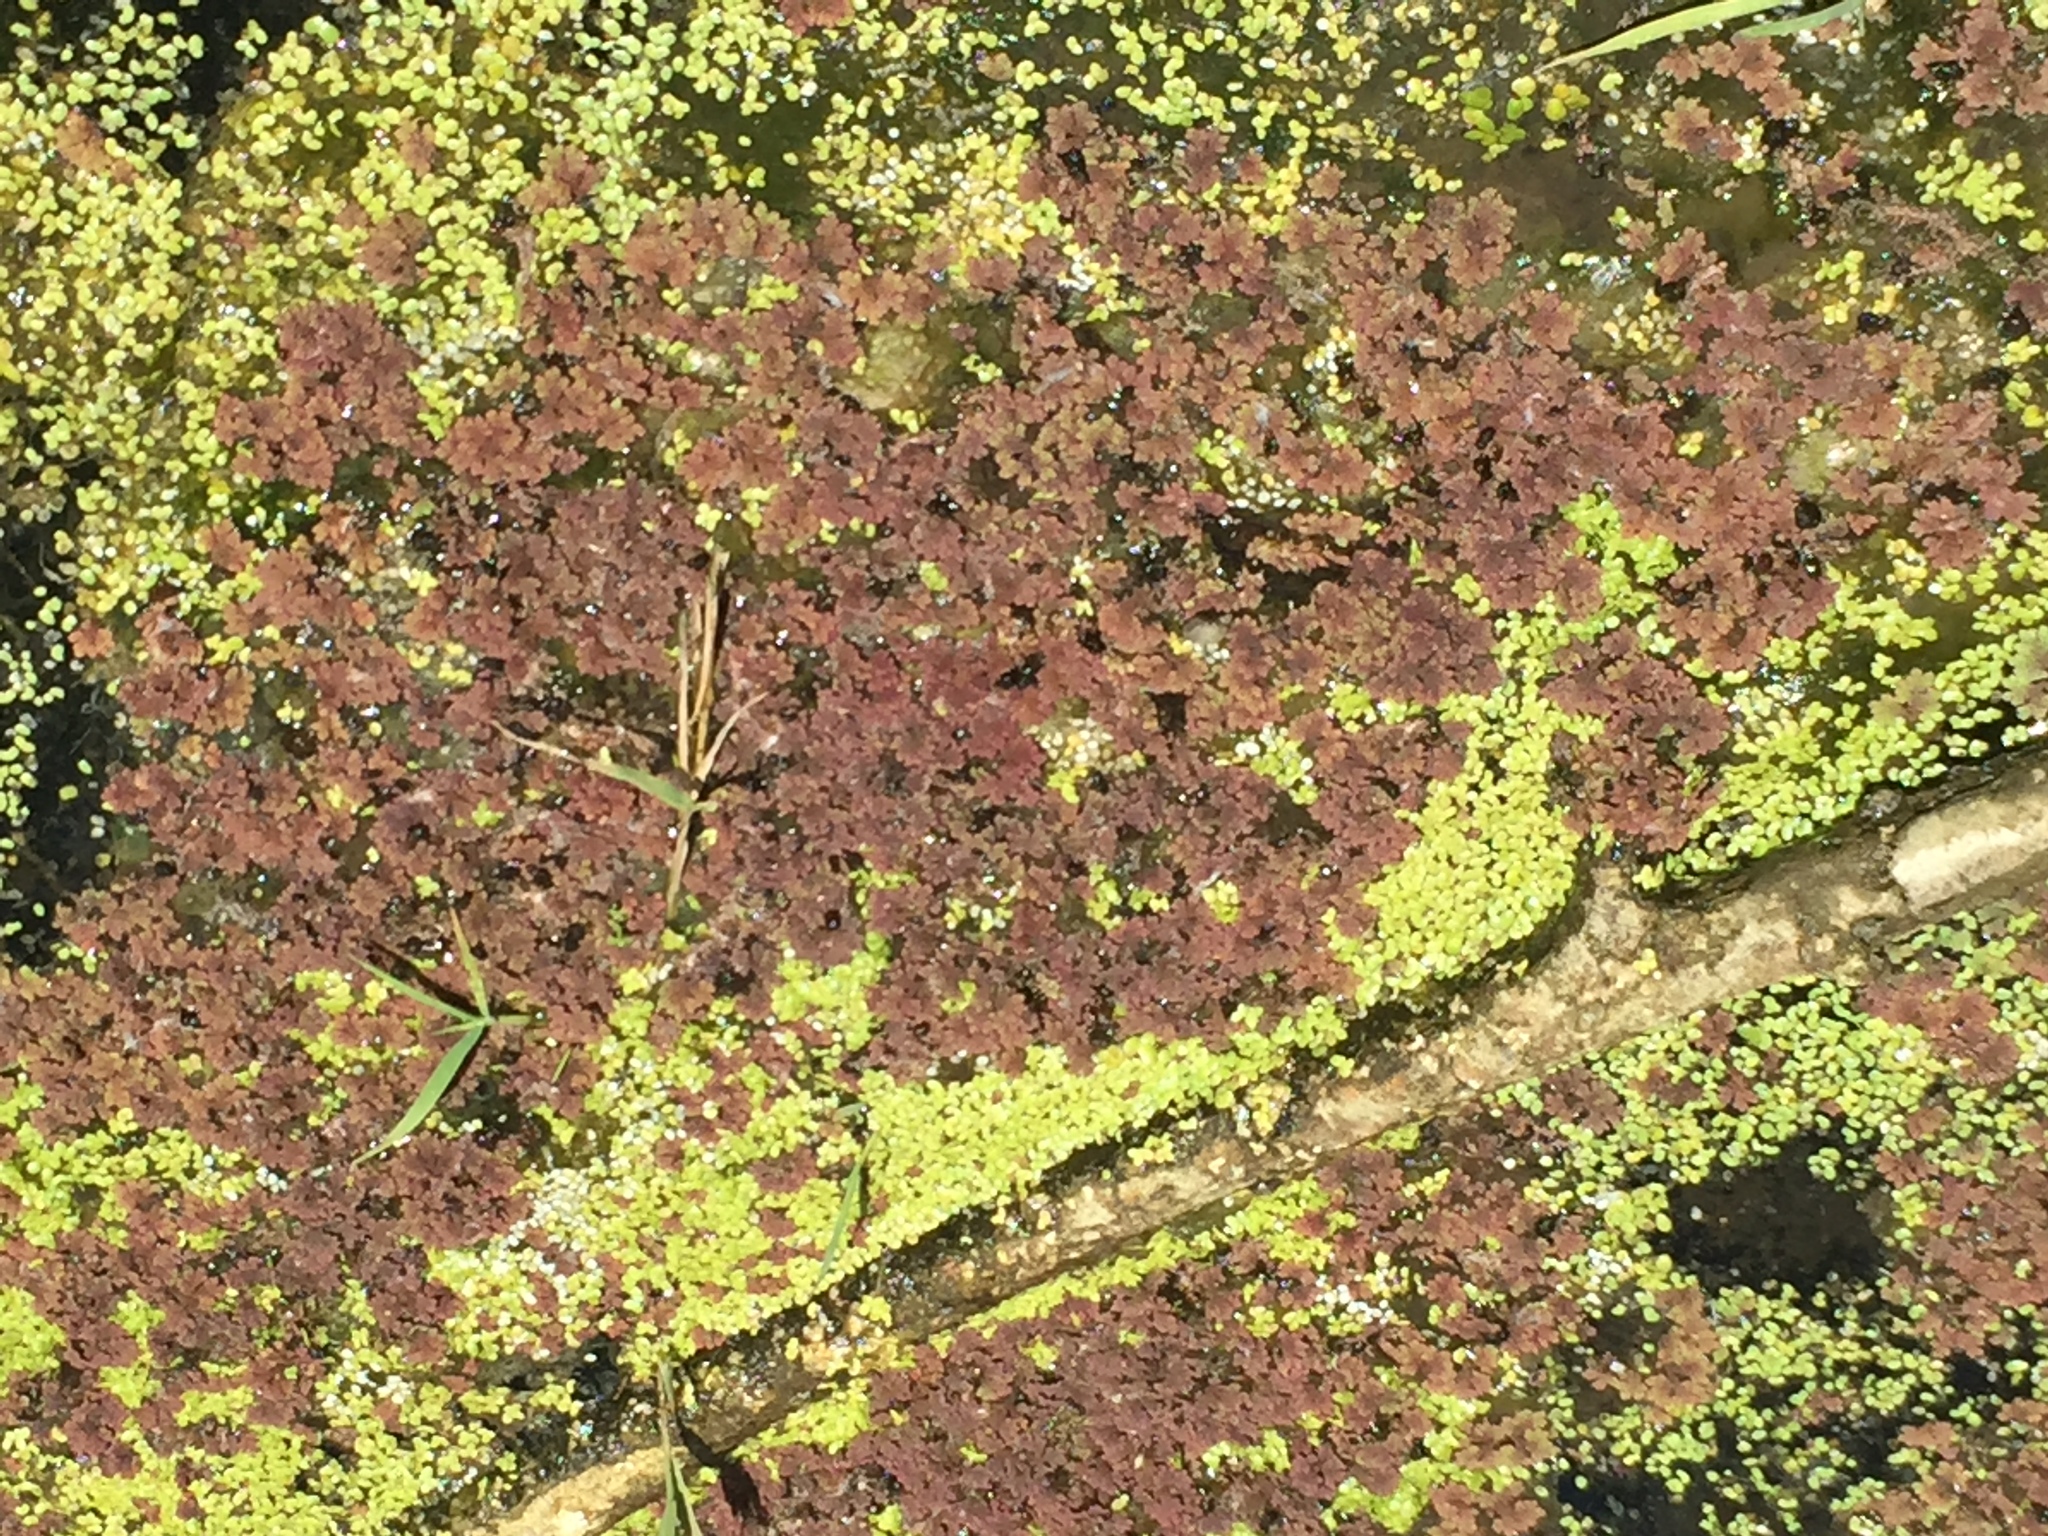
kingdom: Plantae
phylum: Tracheophyta
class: Polypodiopsida
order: Salviniales
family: Salviniaceae
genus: Azolla
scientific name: Azolla rubra
